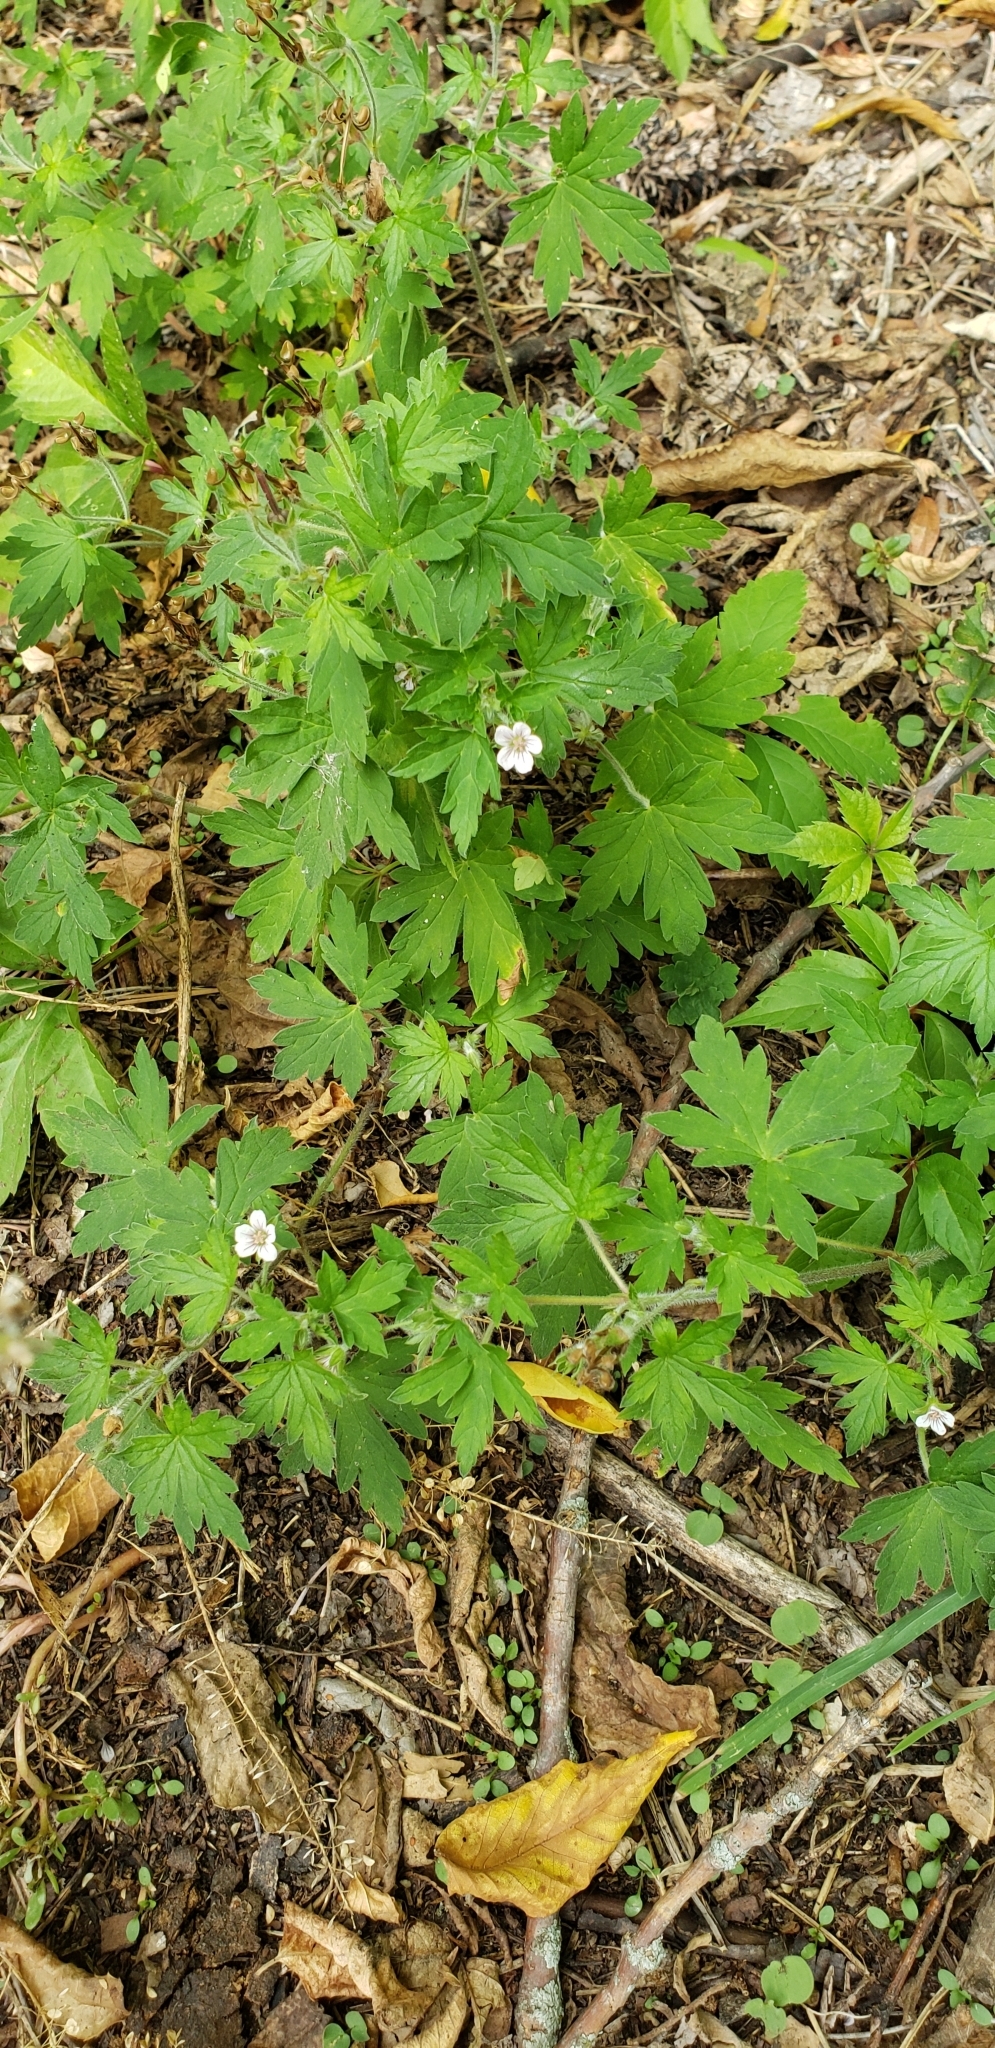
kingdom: Plantae
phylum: Tracheophyta
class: Magnoliopsida
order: Geraniales
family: Geraniaceae
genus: Geranium
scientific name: Geranium sibiricum
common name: Siberian crane's-bill
